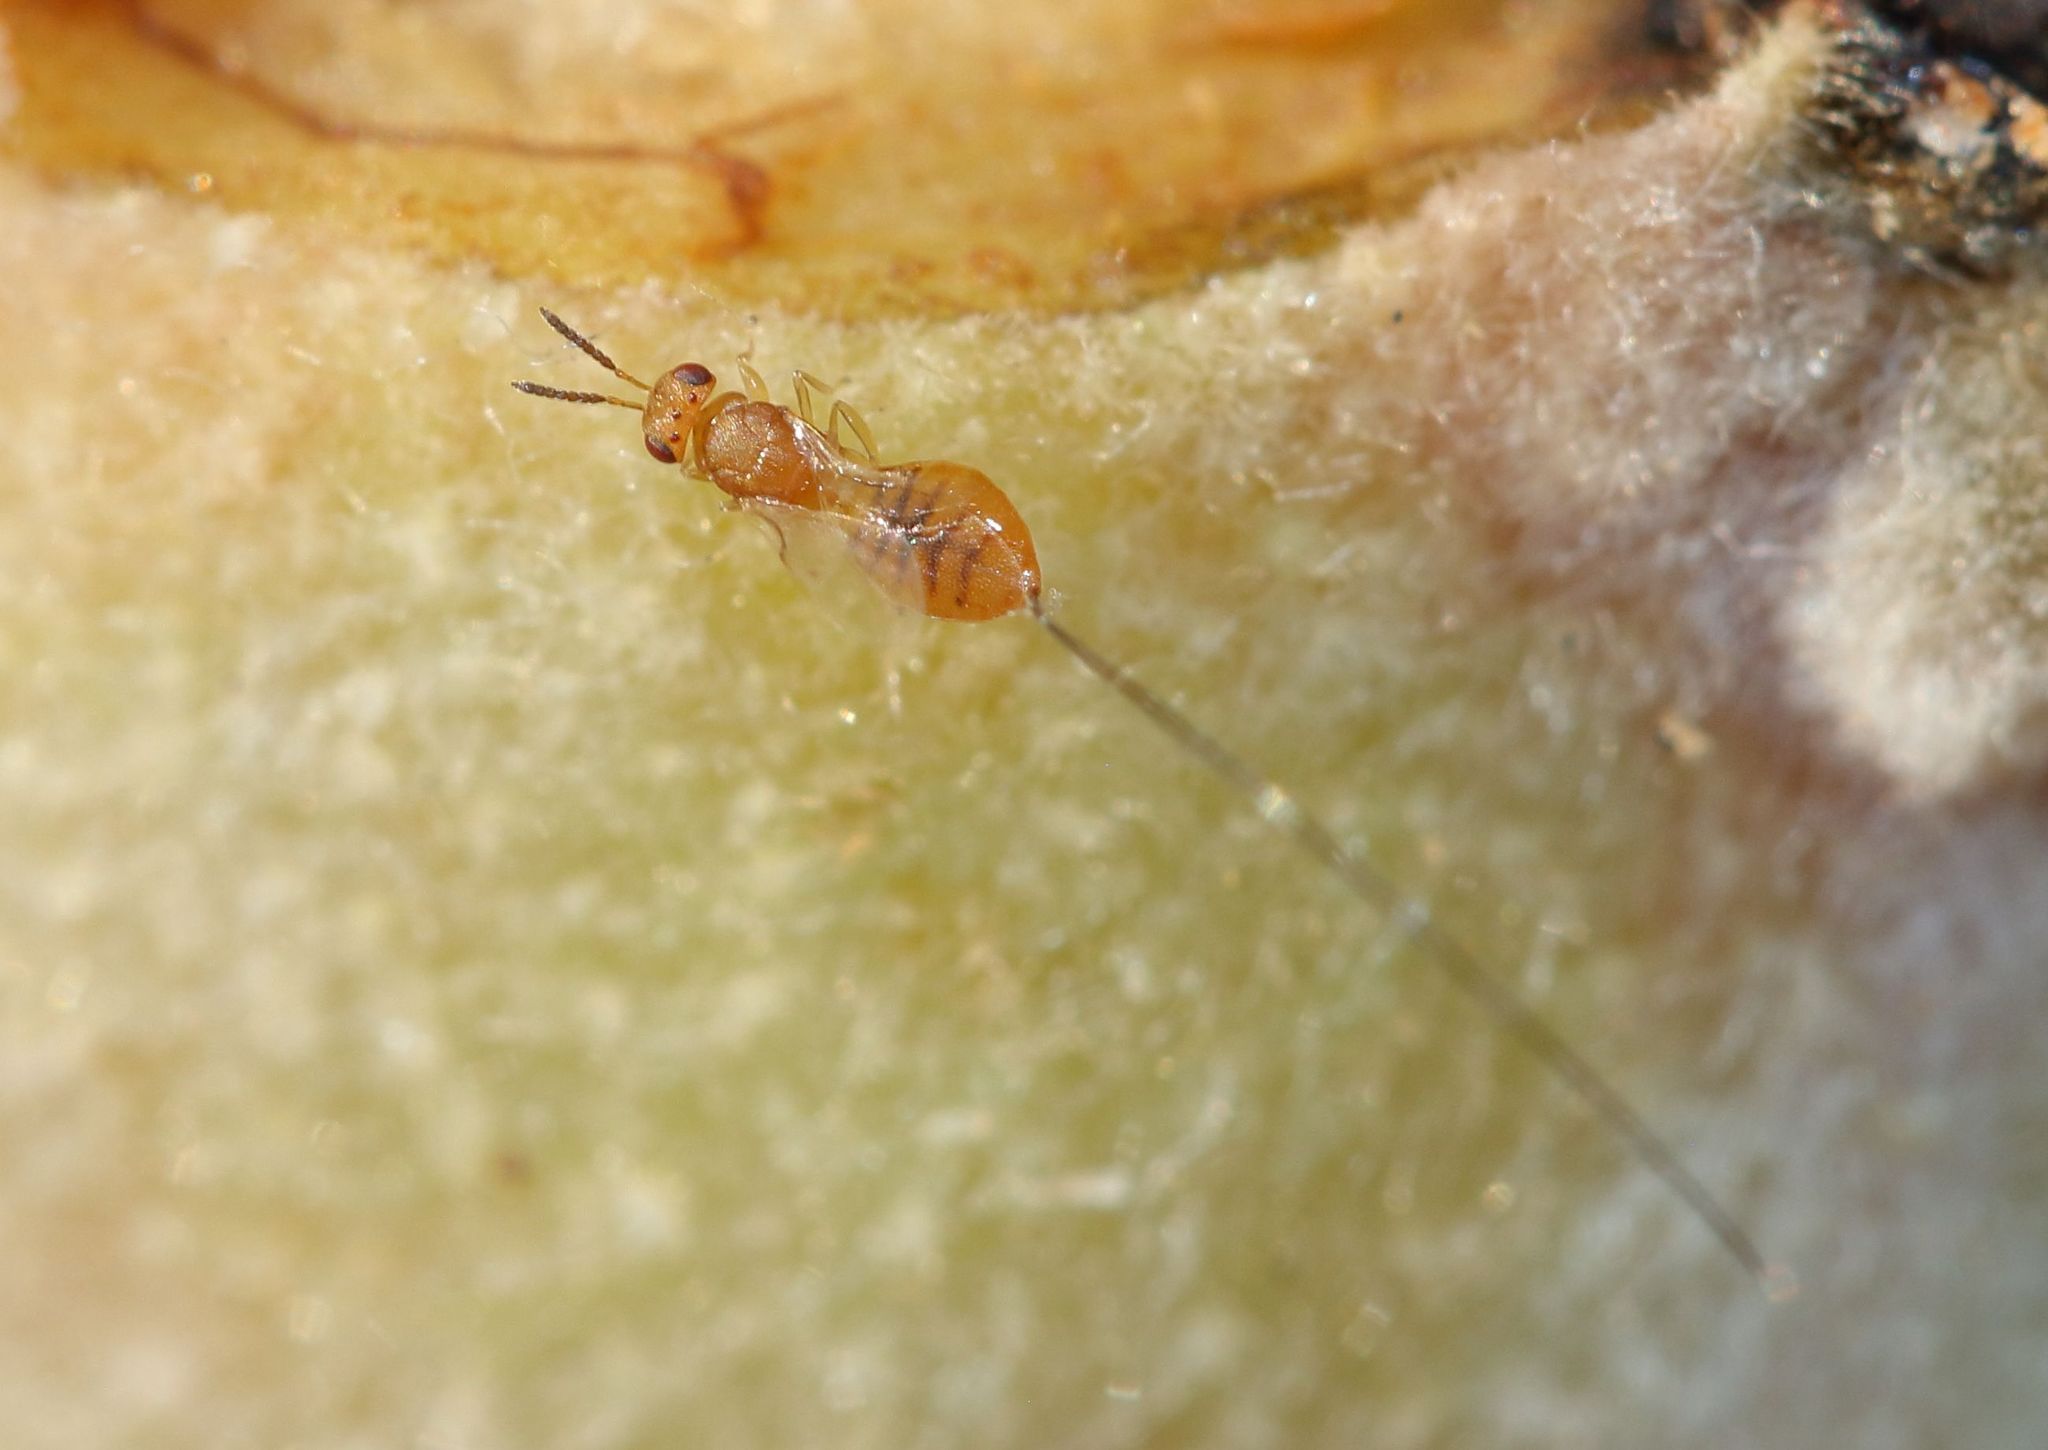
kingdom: Animalia
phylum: Arthropoda
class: Insecta
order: Hymenoptera
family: Agaonidae
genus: Eukoebelea
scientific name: Eukoebelea sycomori
